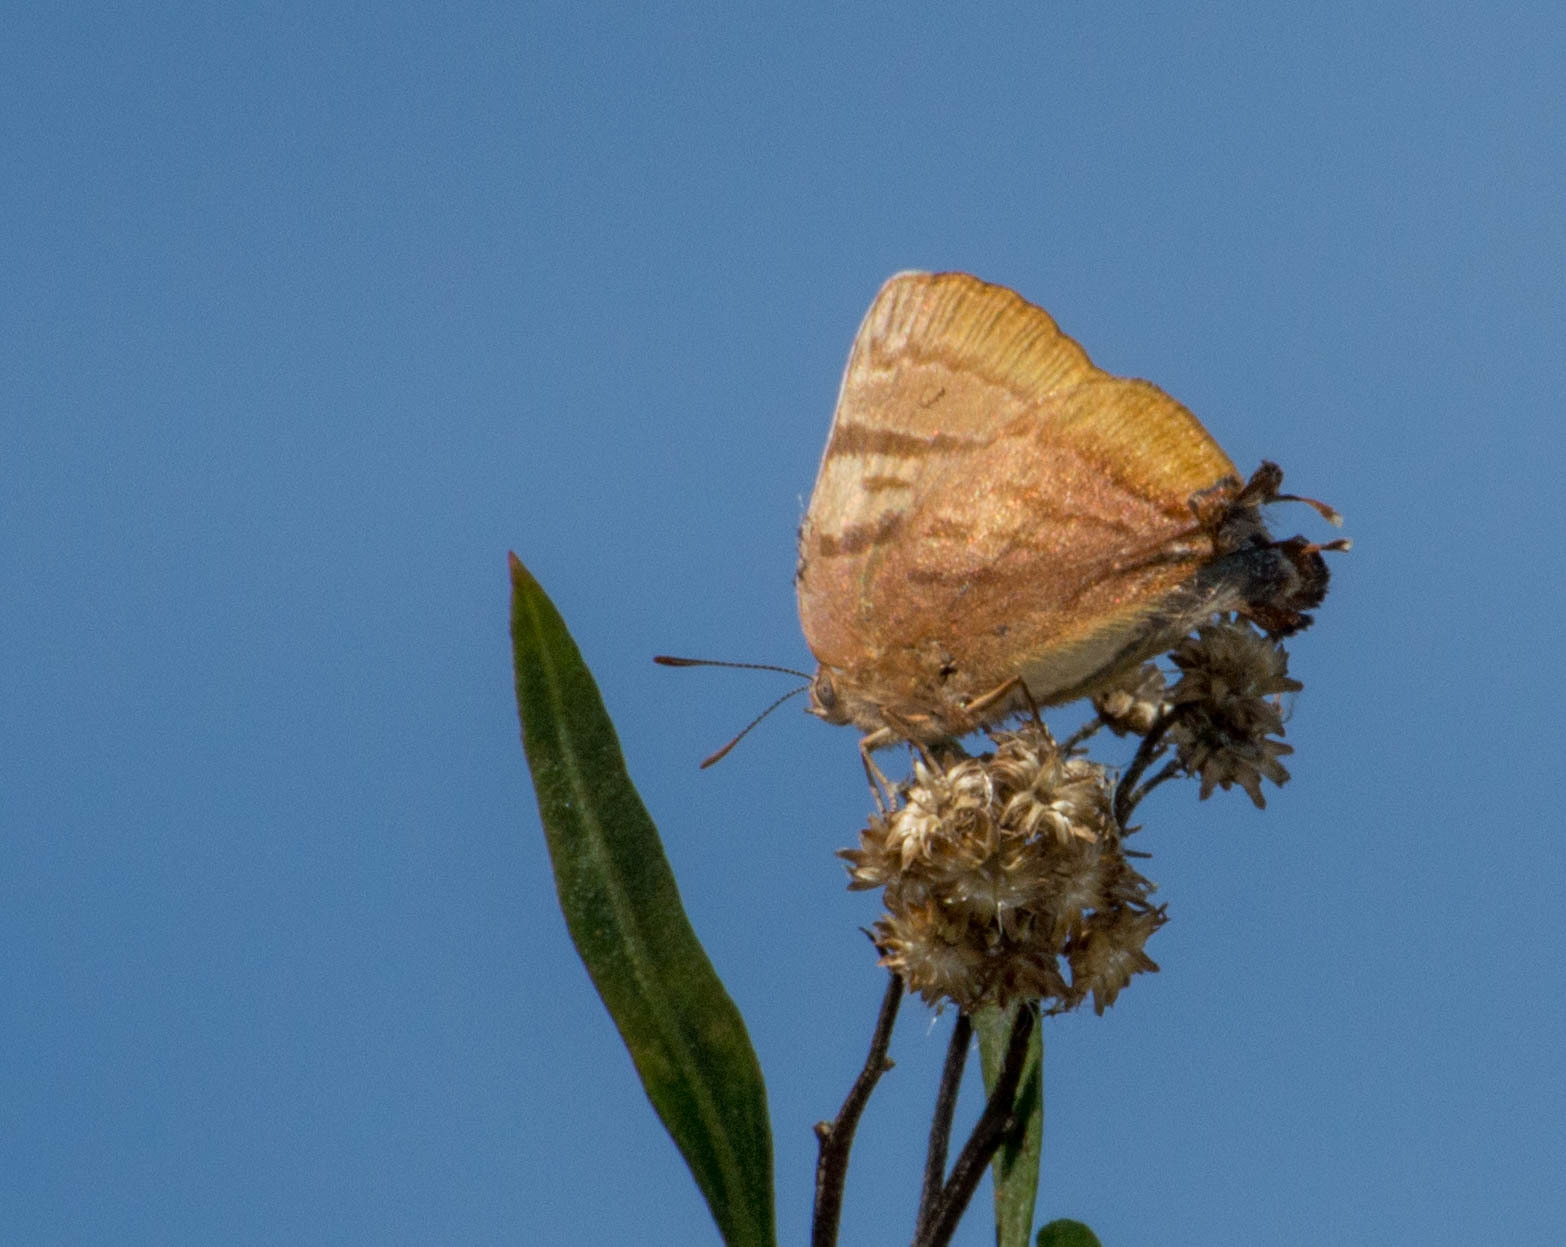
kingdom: Animalia
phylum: Arthropoda
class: Insecta
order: Lepidoptera
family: Lycaenidae
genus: Thecla
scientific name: Thecla marius
